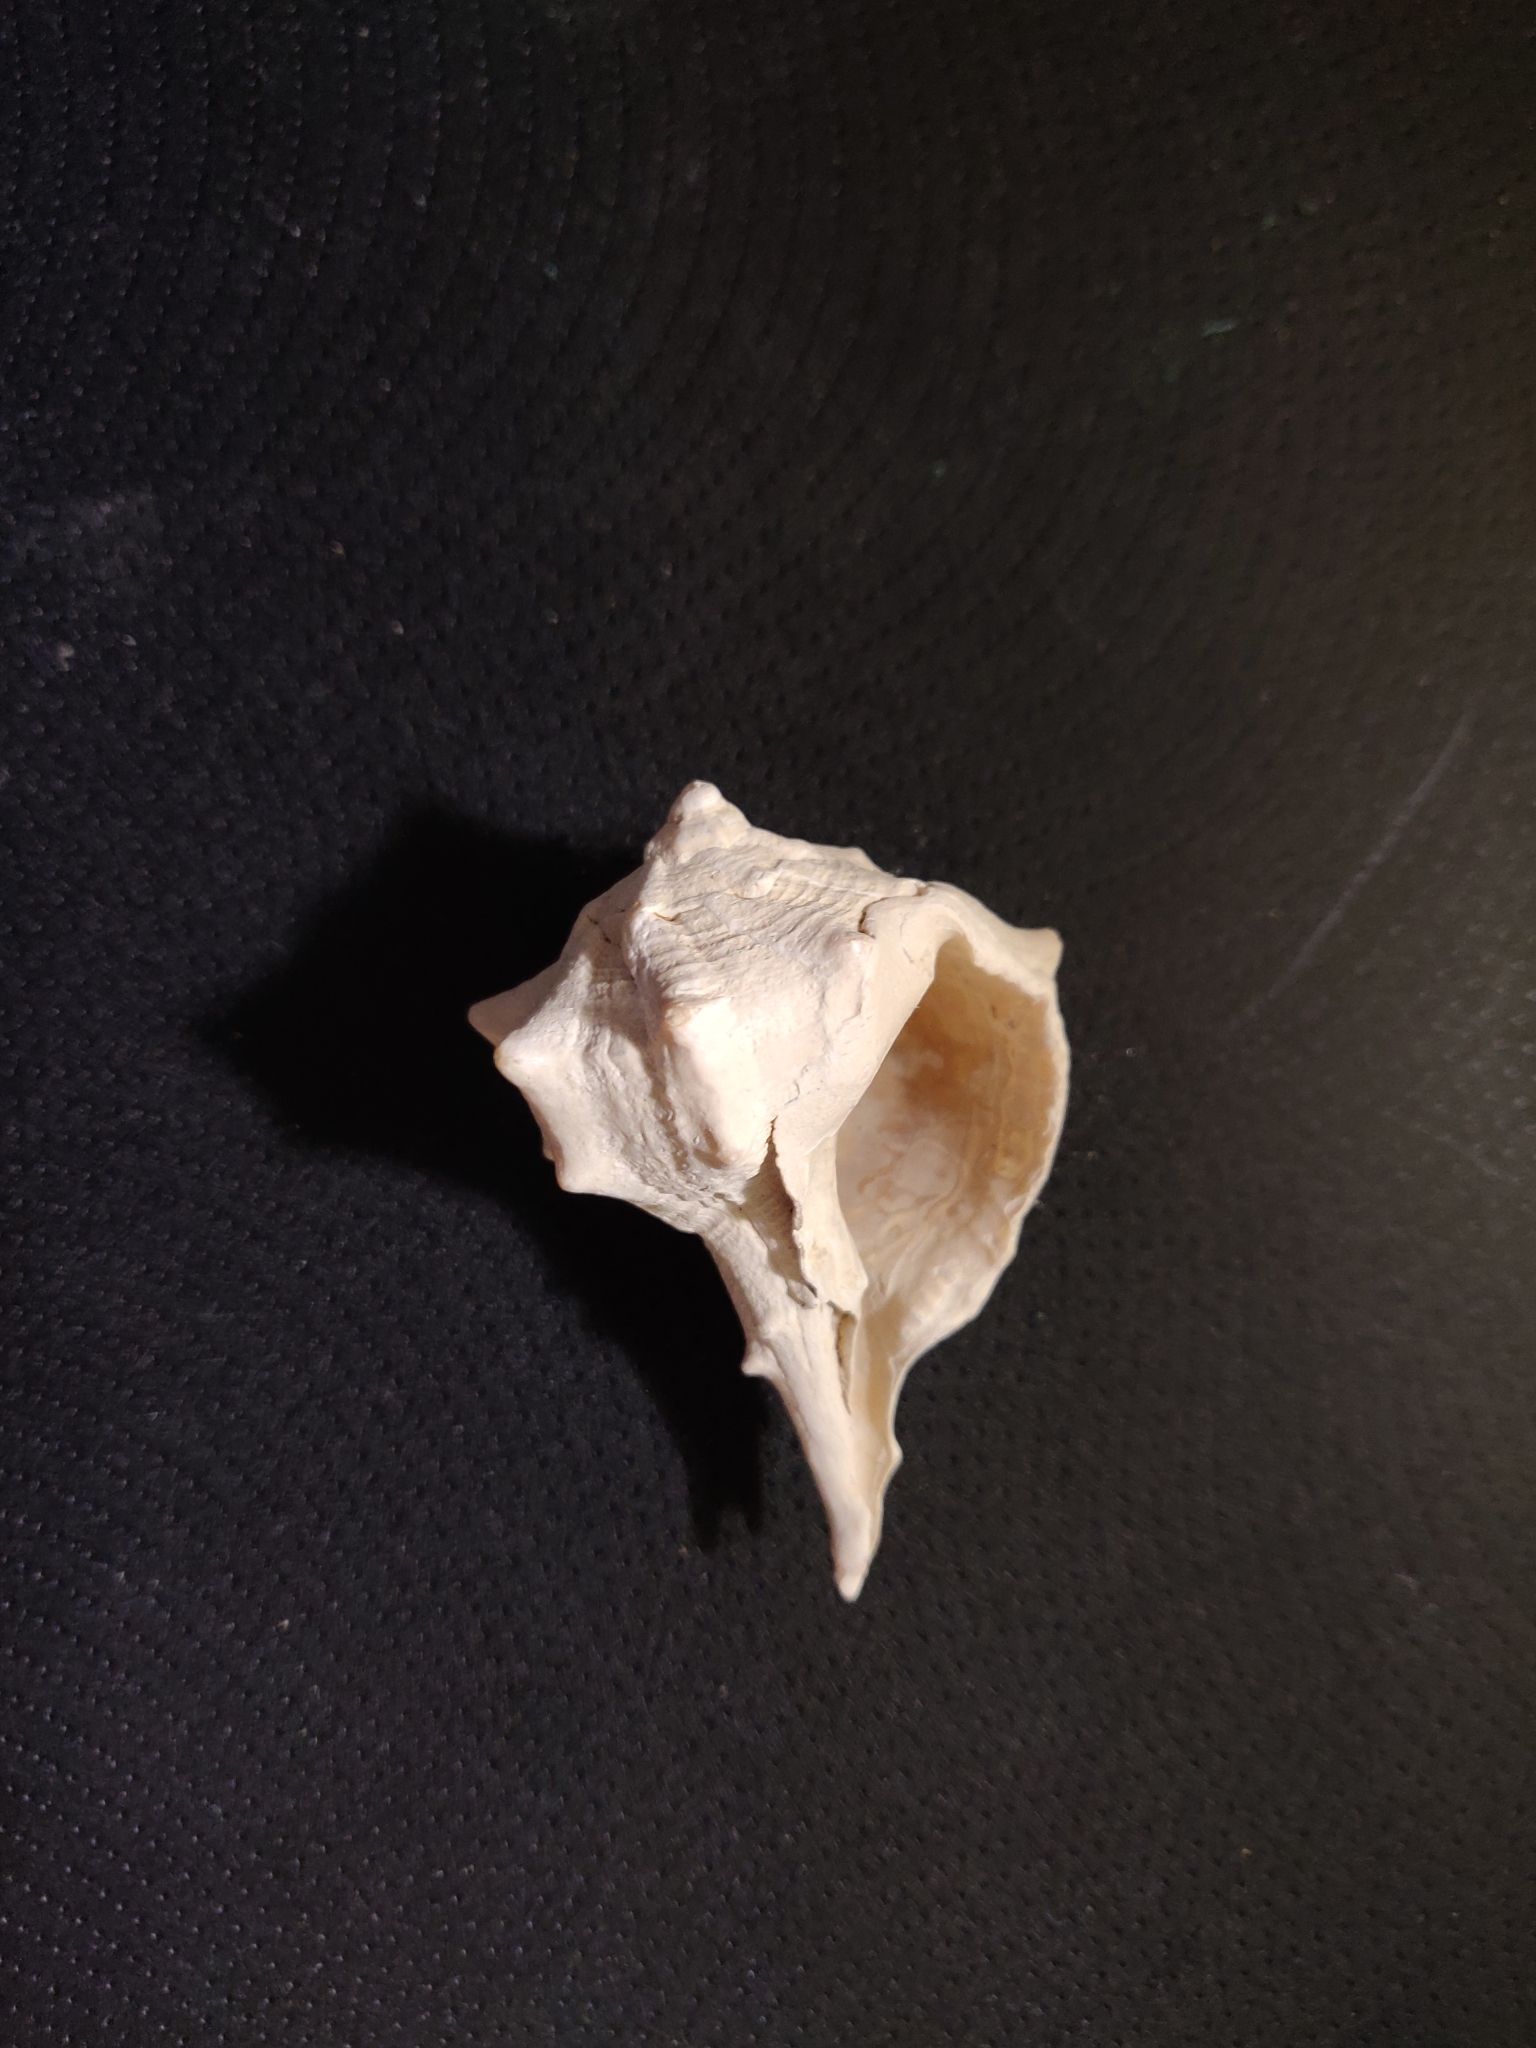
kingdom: Animalia
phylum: Mollusca
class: Gastropoda
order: Neogastropoda
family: Muricidae
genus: Bolinus
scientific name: Bolinus brandaris
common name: Dye murex
